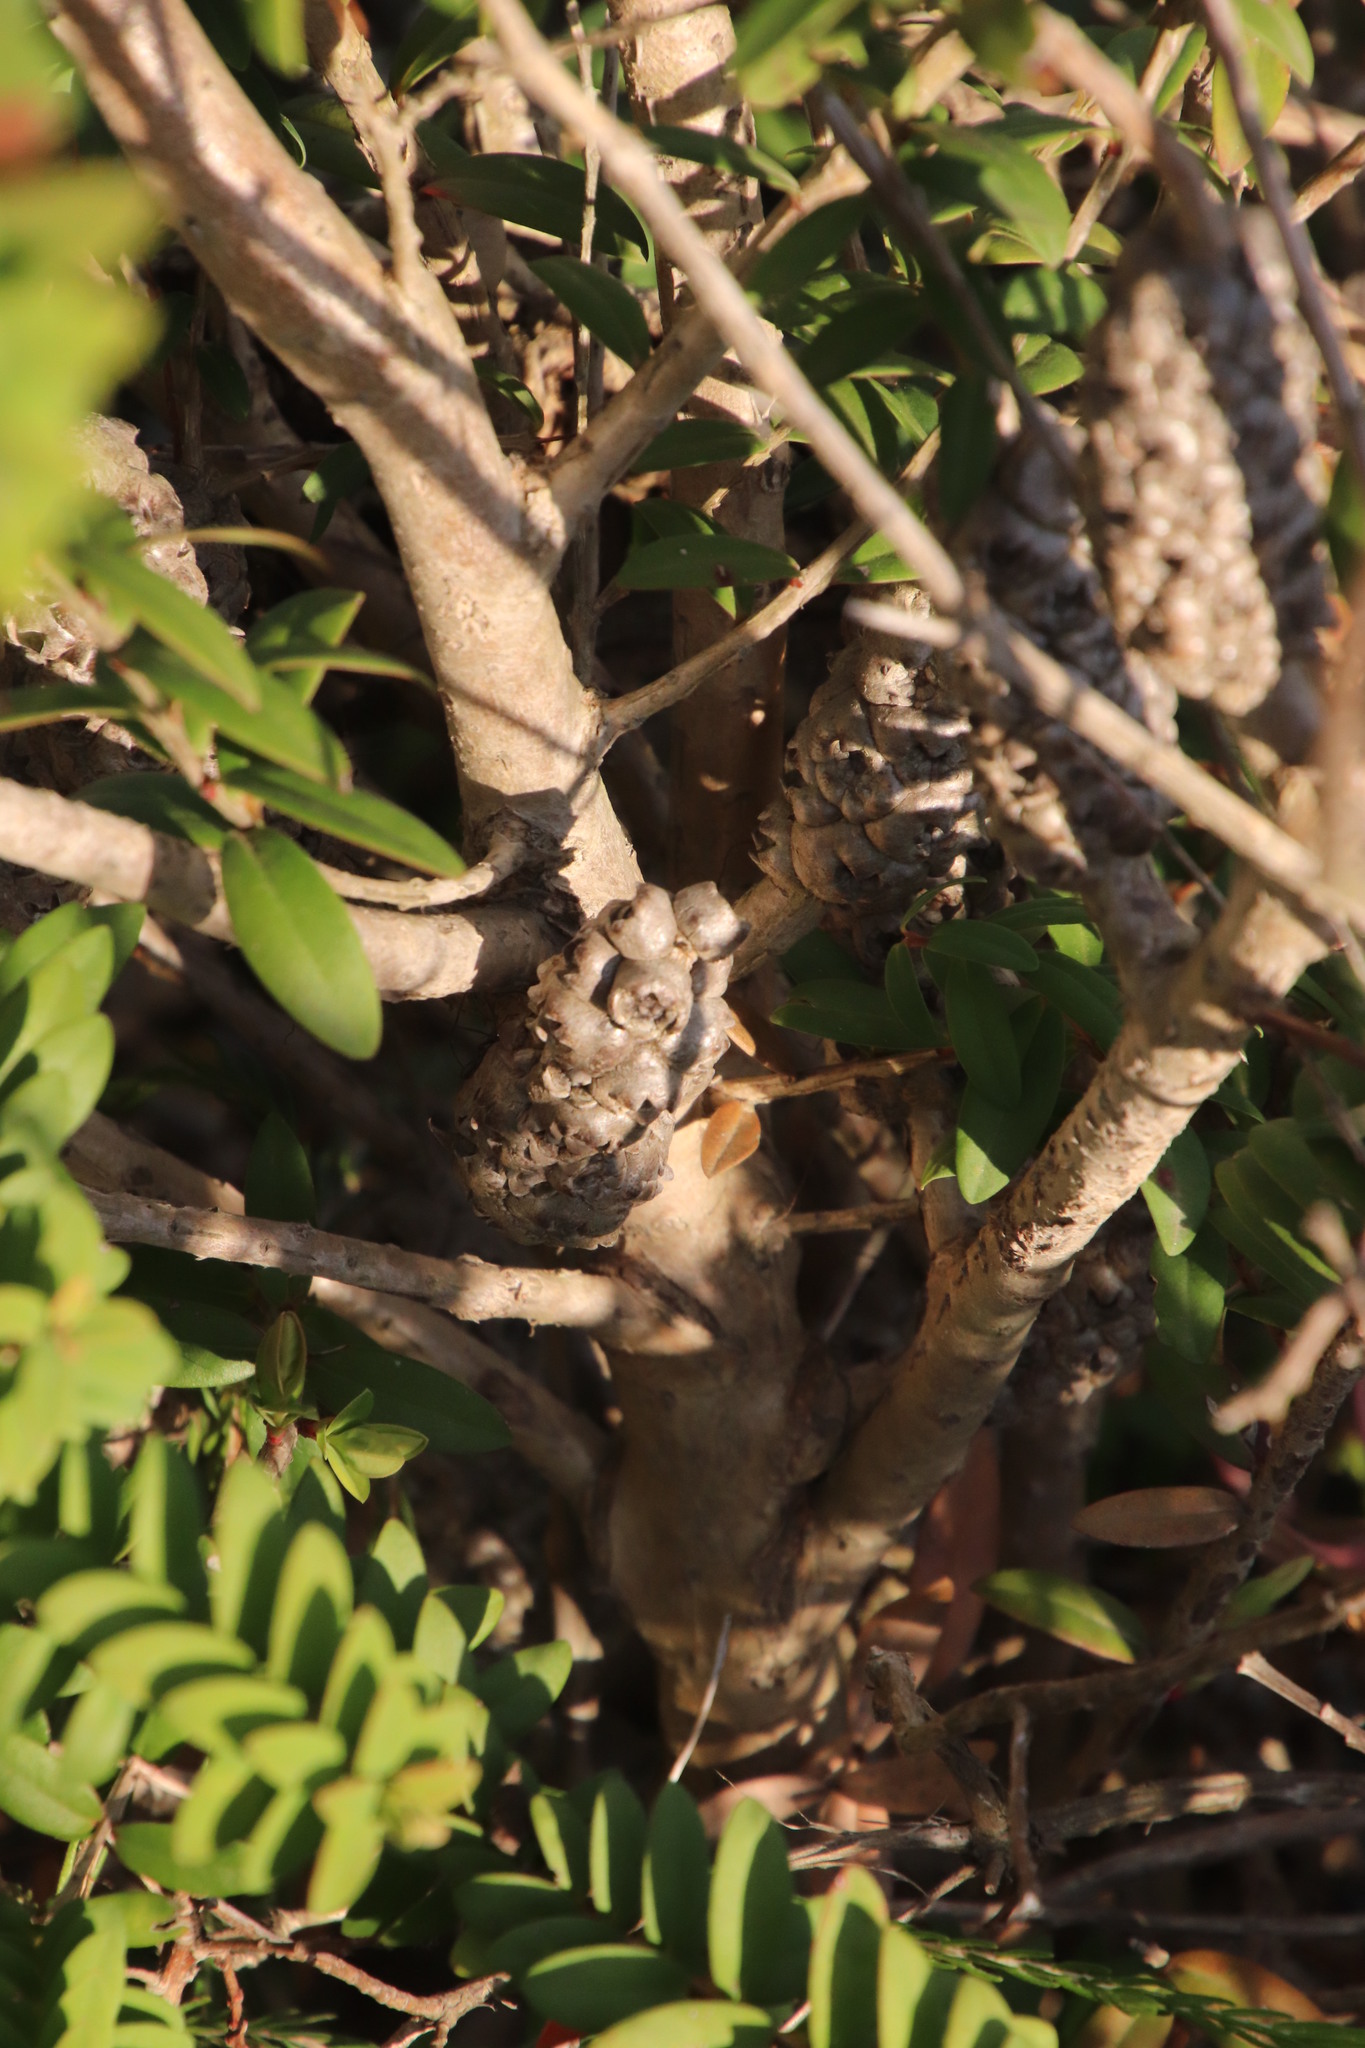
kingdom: Plantae
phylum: Tracheophyta
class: Magnoliopsida
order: Myrtales
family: Myrtaceae
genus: Melaleuca
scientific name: Melaleuca hypericifolia
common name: Red honey myrtle
